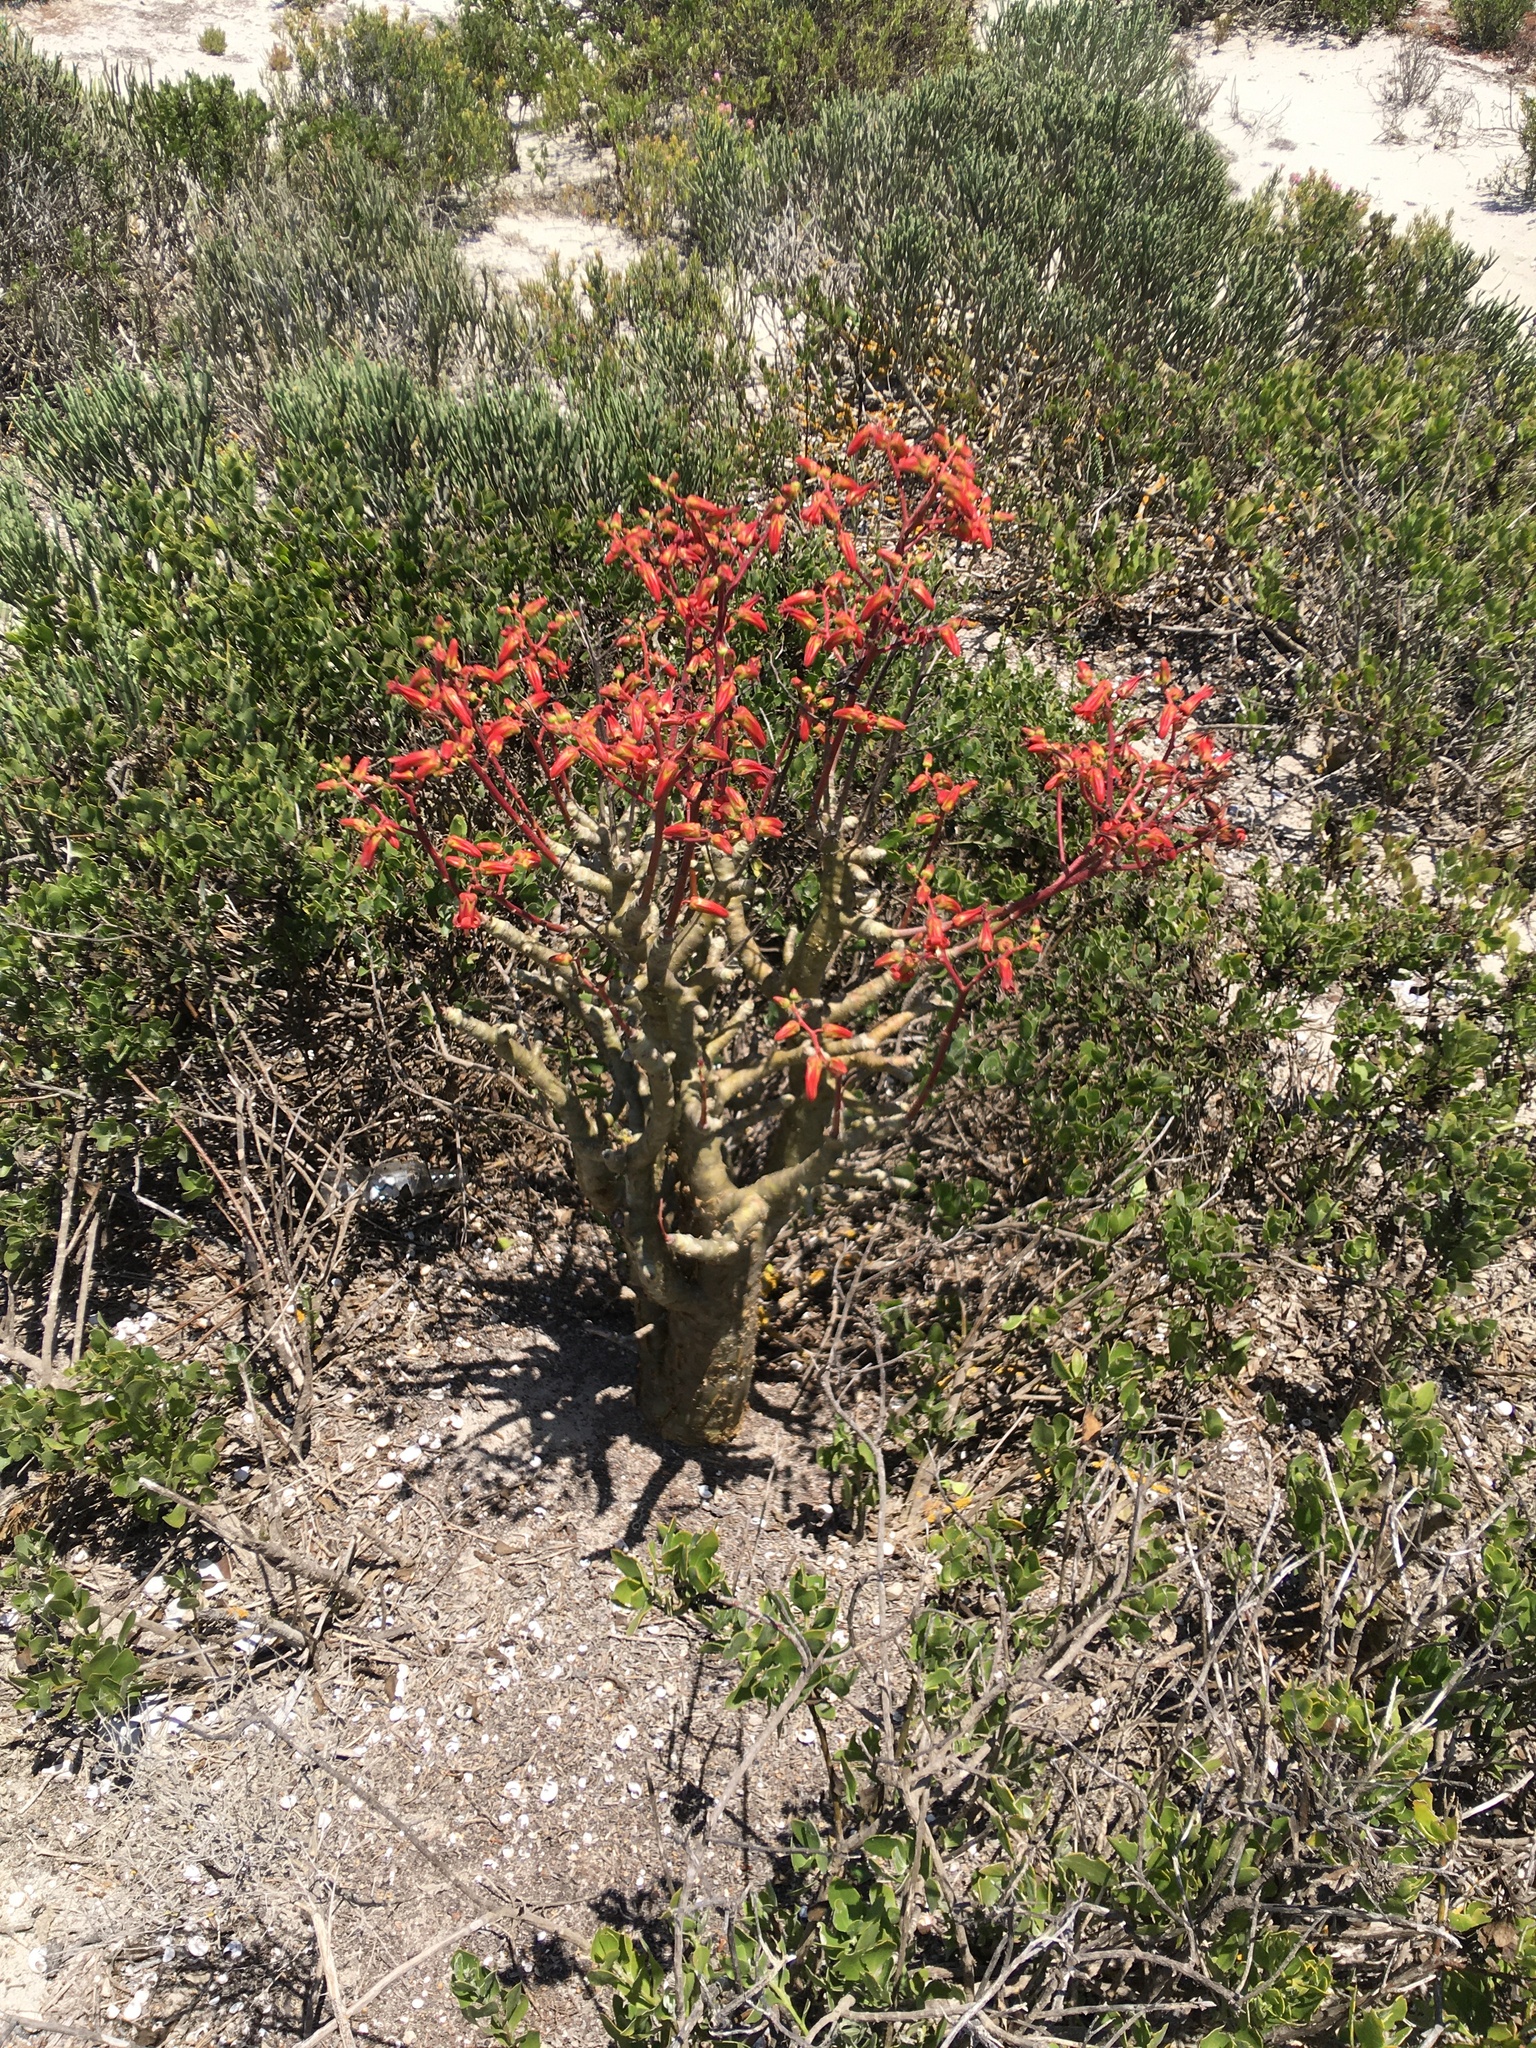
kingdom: Plantae
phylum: Tracheophyta
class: Magnoliopsida
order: Saxifragales
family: Crassulaceae
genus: Tylecodon
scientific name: Tylecodon paniculatus
